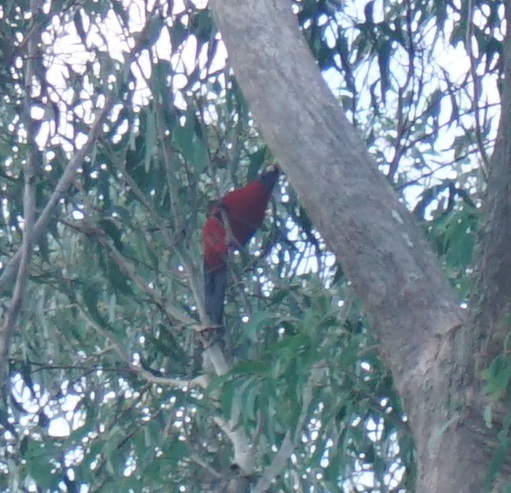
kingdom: Animalia
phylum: Chordata
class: Aves
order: Psittaciformes
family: Psittacidae
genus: Platycercus
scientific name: Platycercus elegans
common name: Crimson rosella
